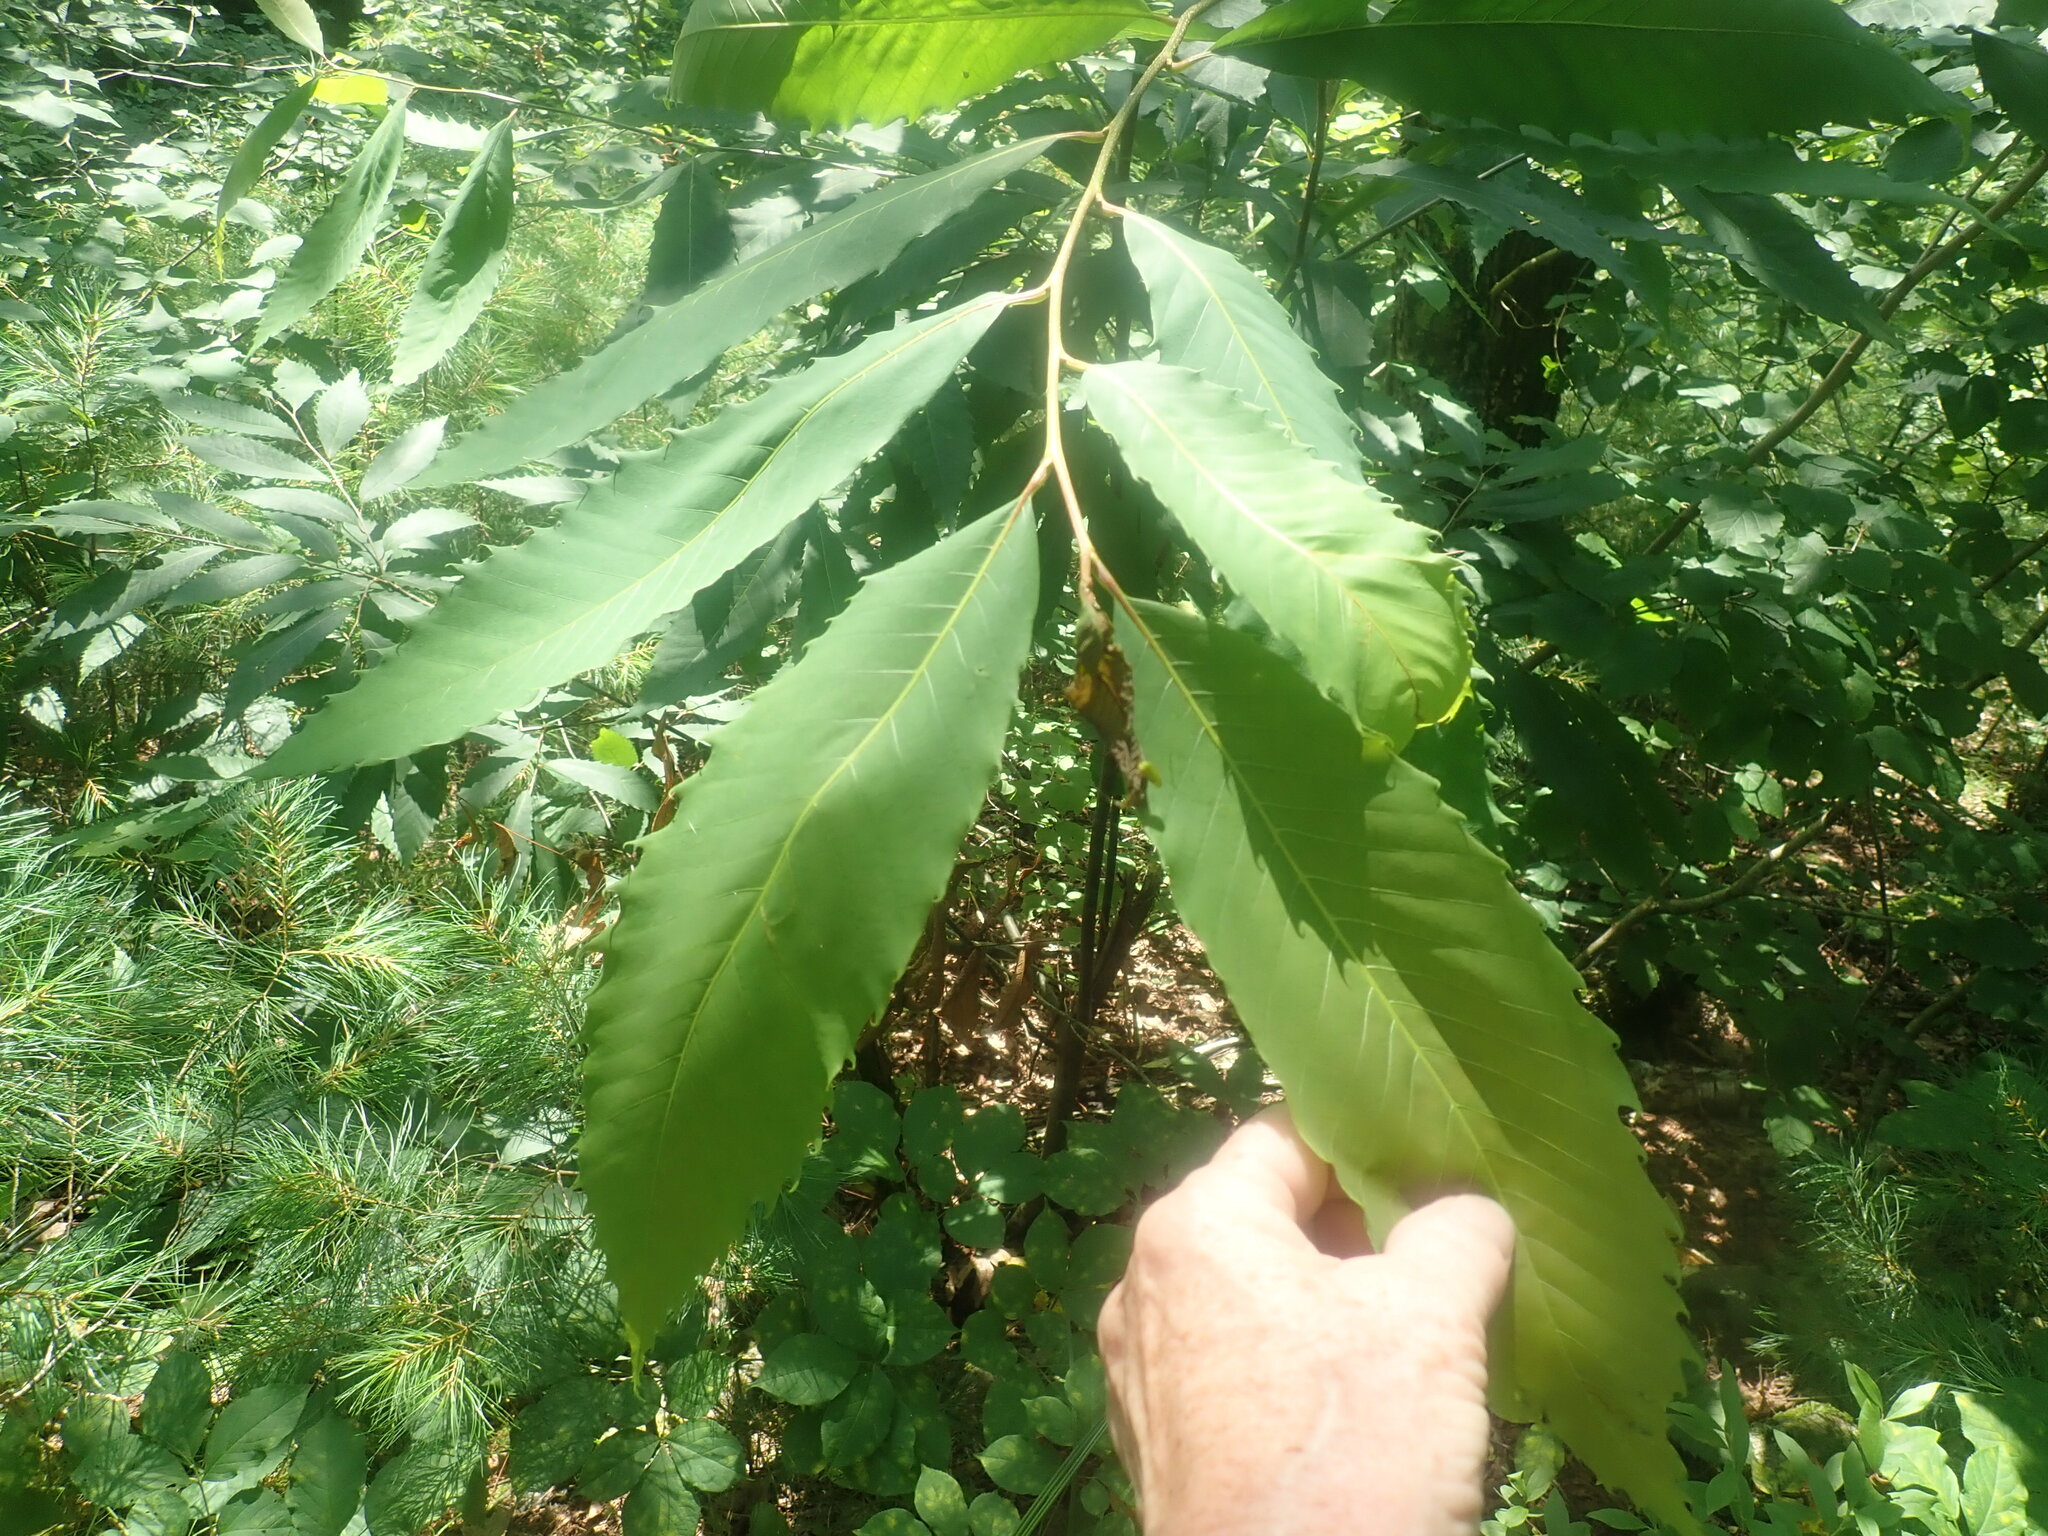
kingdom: Plantae
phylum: Tracheophyta
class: Magnoliopsida
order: Fagales
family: Fagaceae
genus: Castanea
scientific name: Castanea dentata
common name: American chestnut
